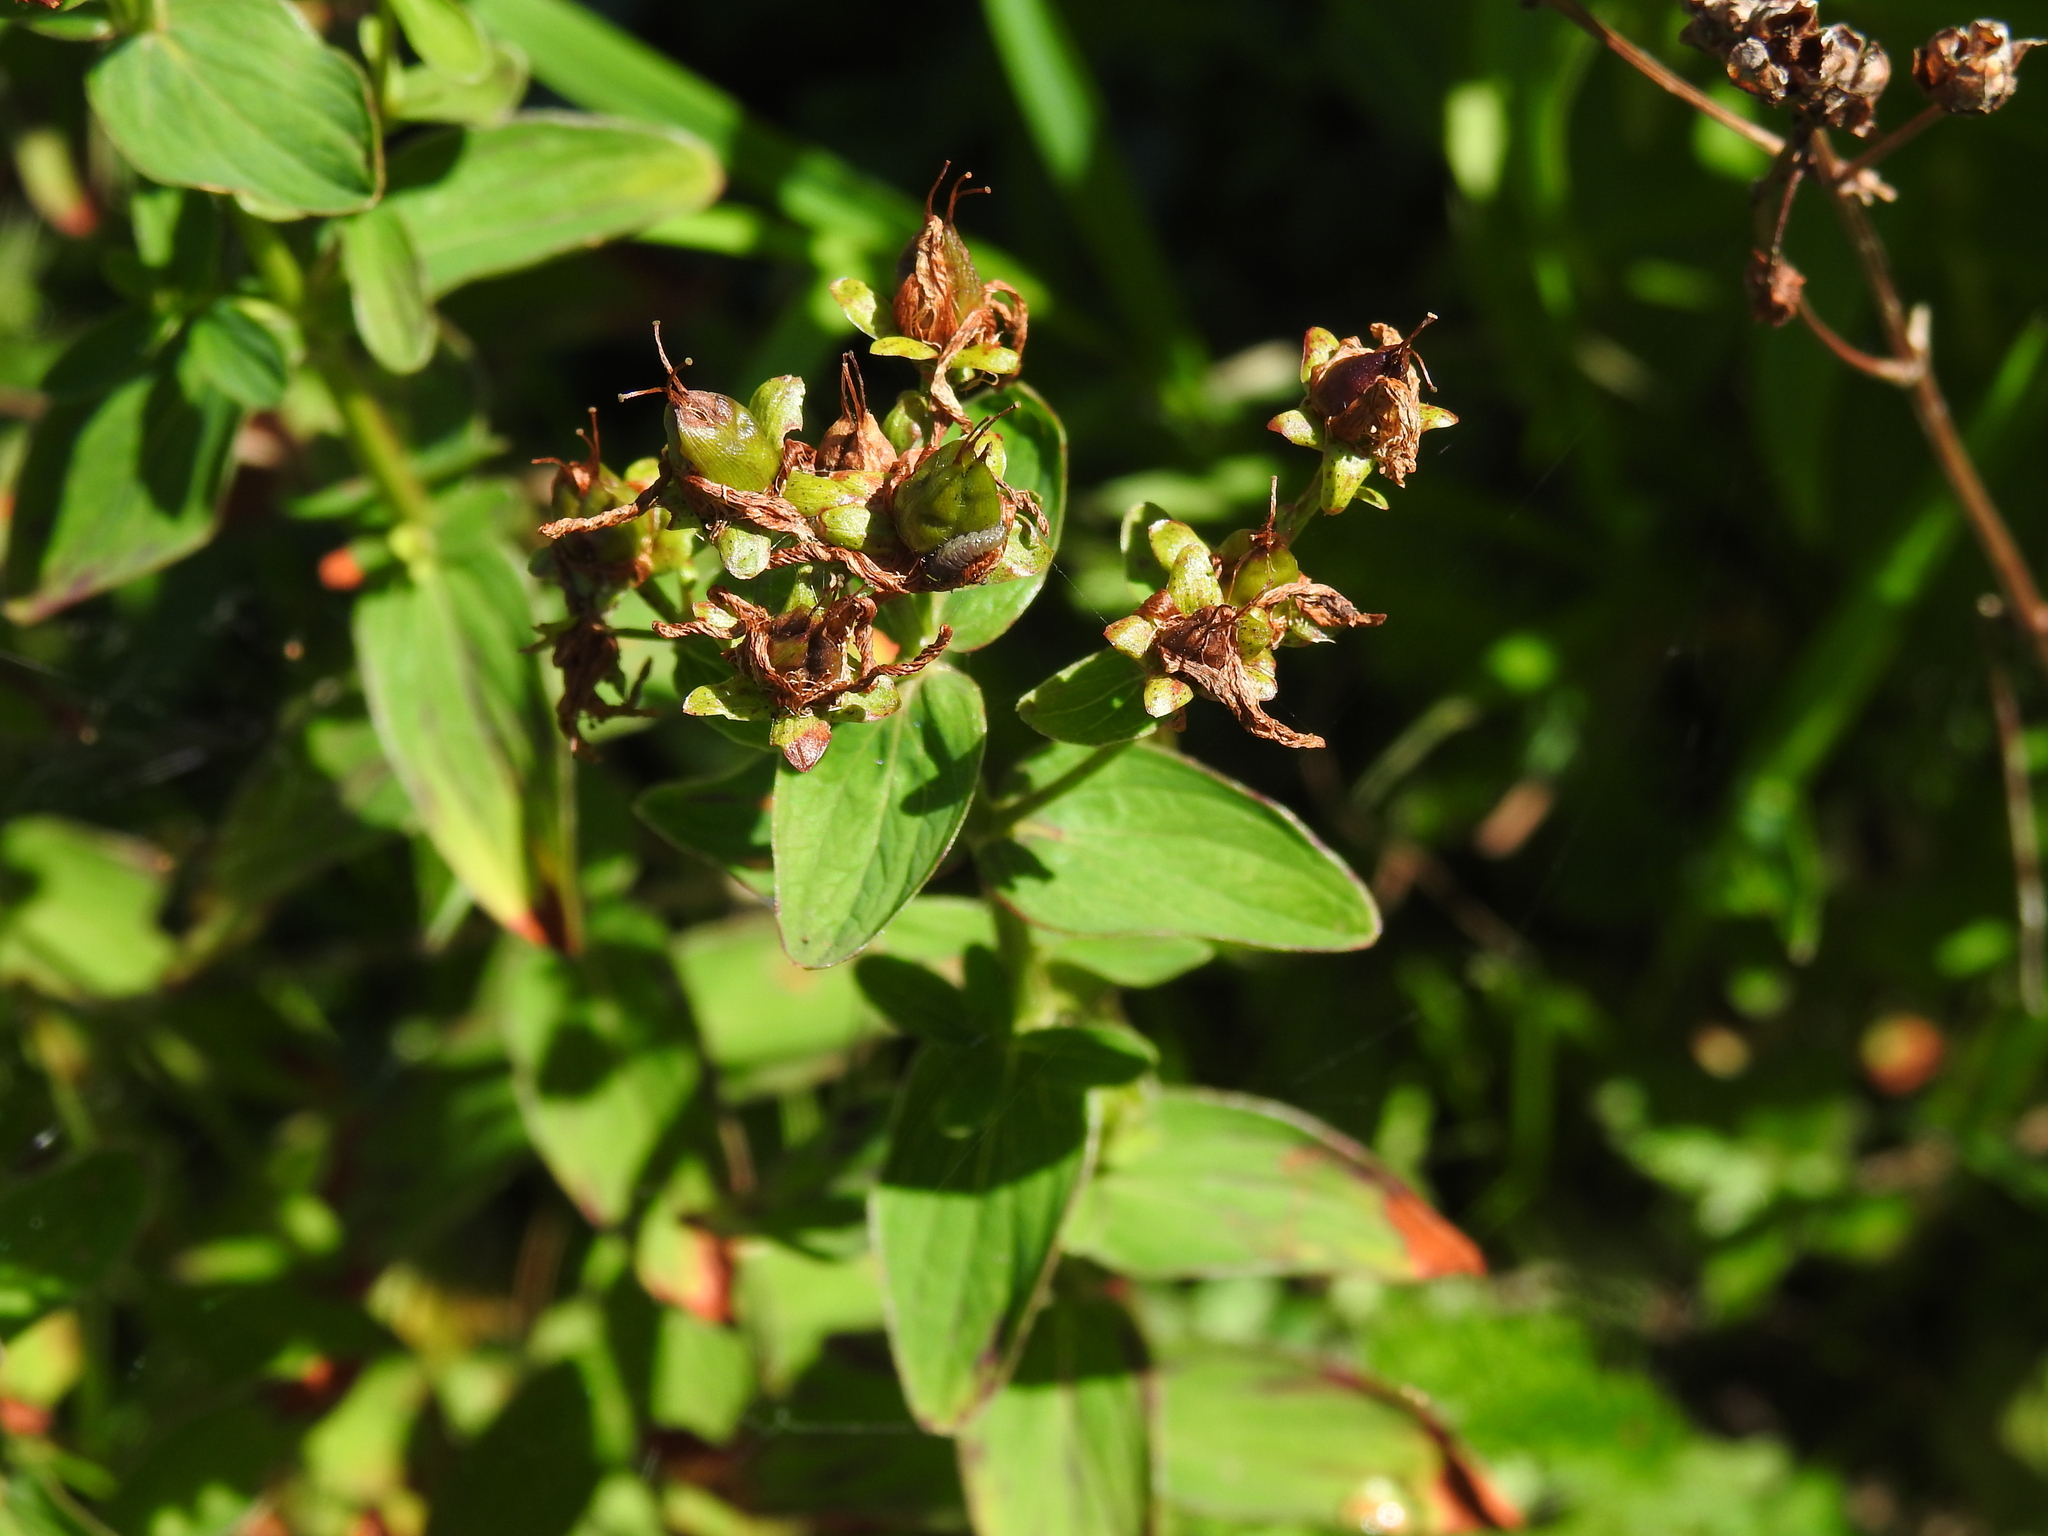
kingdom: Plantae
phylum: Tracheophyta
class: Magnoliopsida
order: Malpighiales
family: Hypericaceae
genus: Hypericum
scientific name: Hypericum maculatum
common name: Imperforate st. john's-wort
